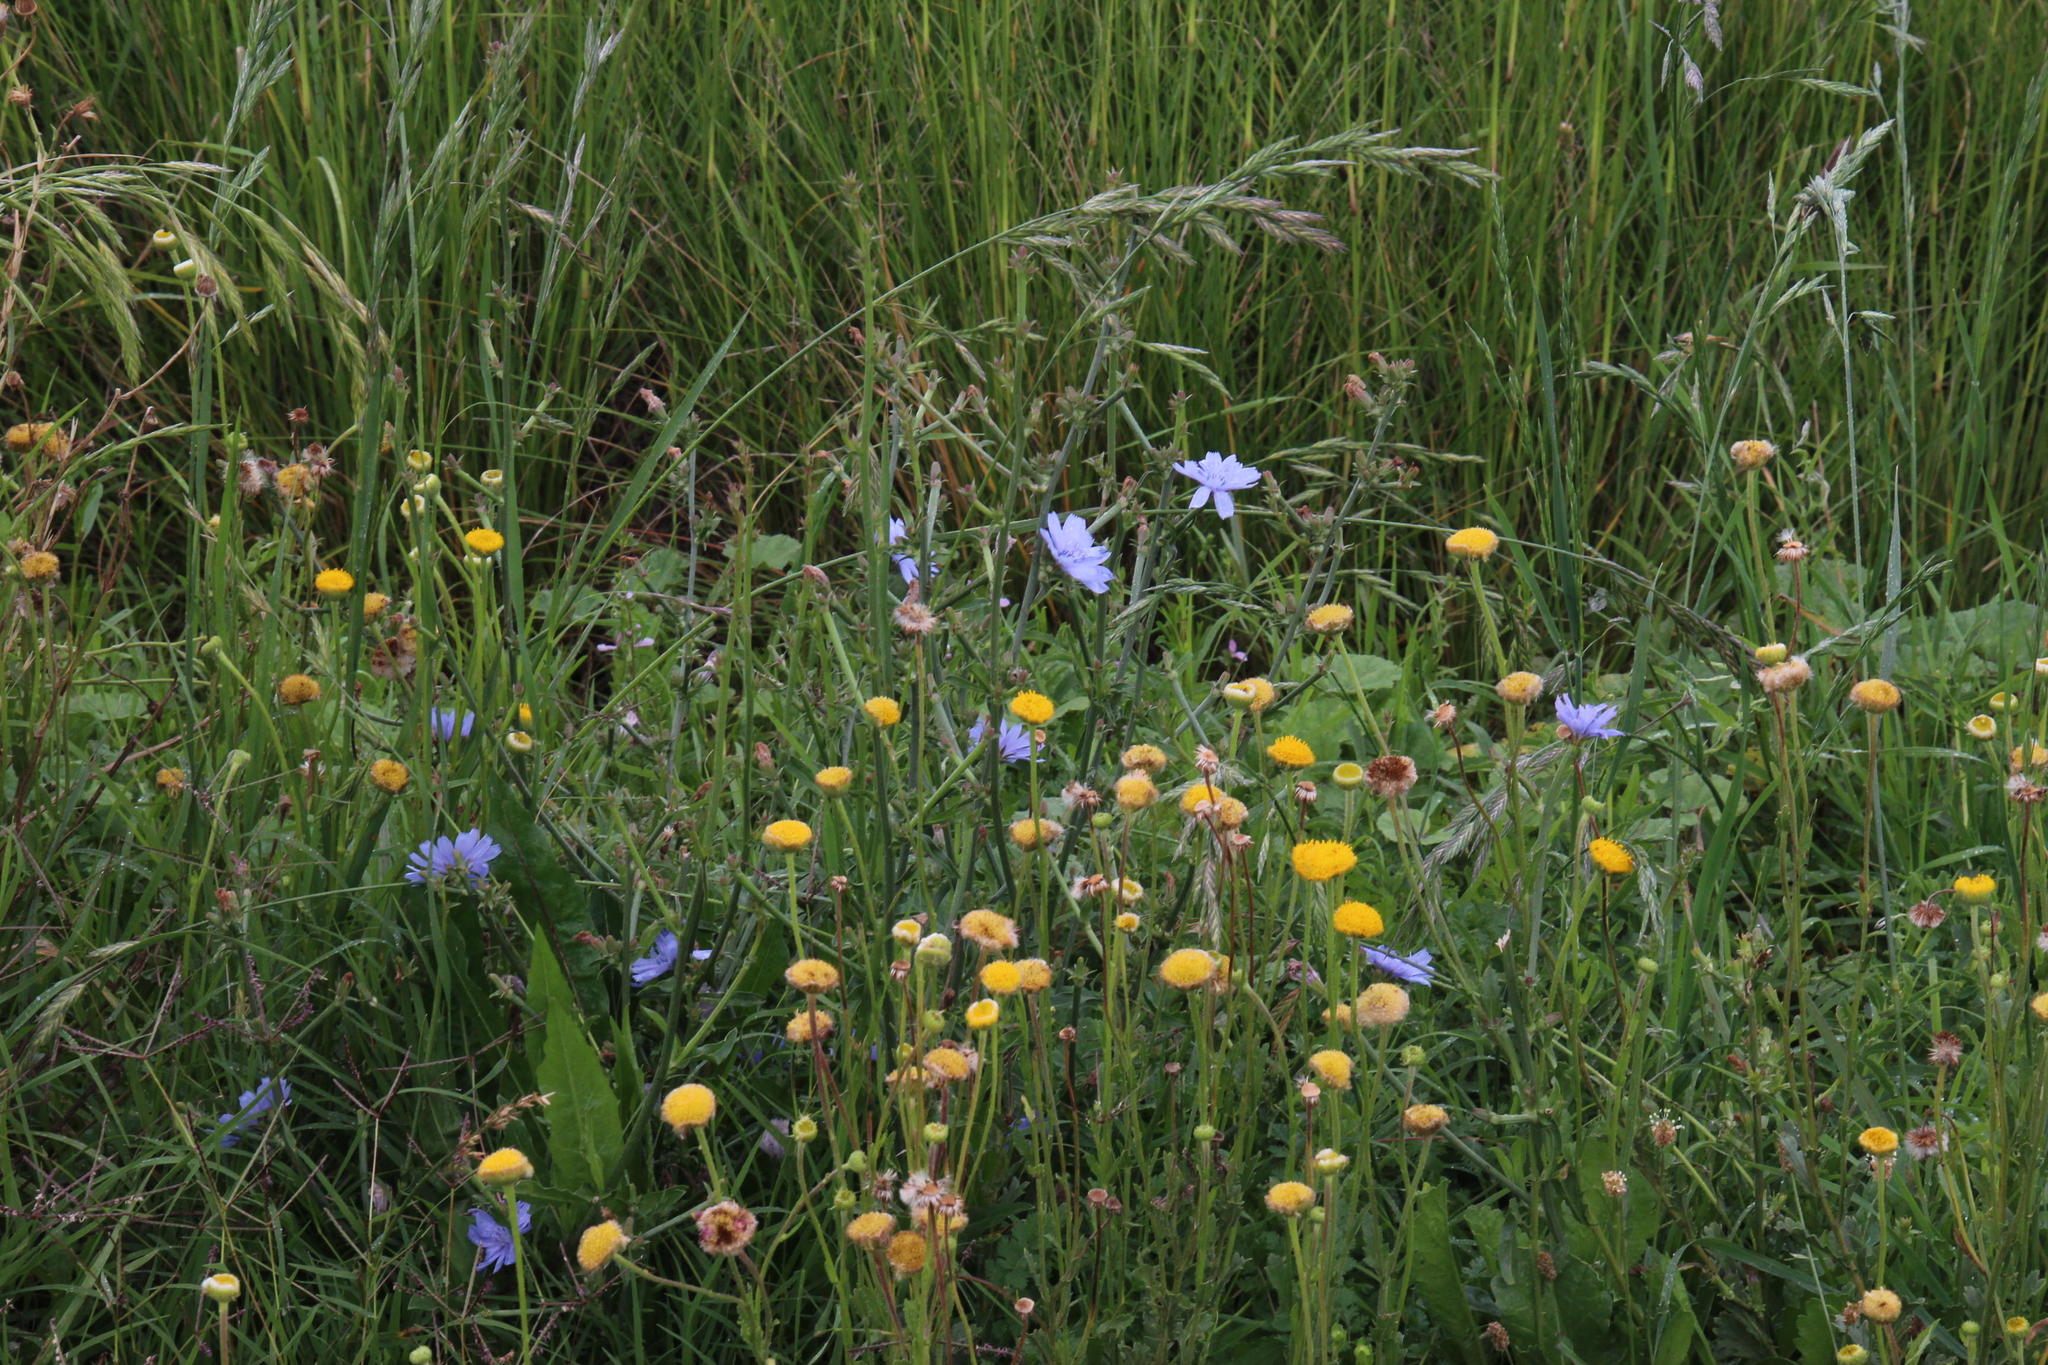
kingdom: Plantae
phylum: Tracheophyta
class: Magnoliopsida
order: Asterales
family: Asteraceae
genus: Cichorium
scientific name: Cichorium intybus
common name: Chicory
